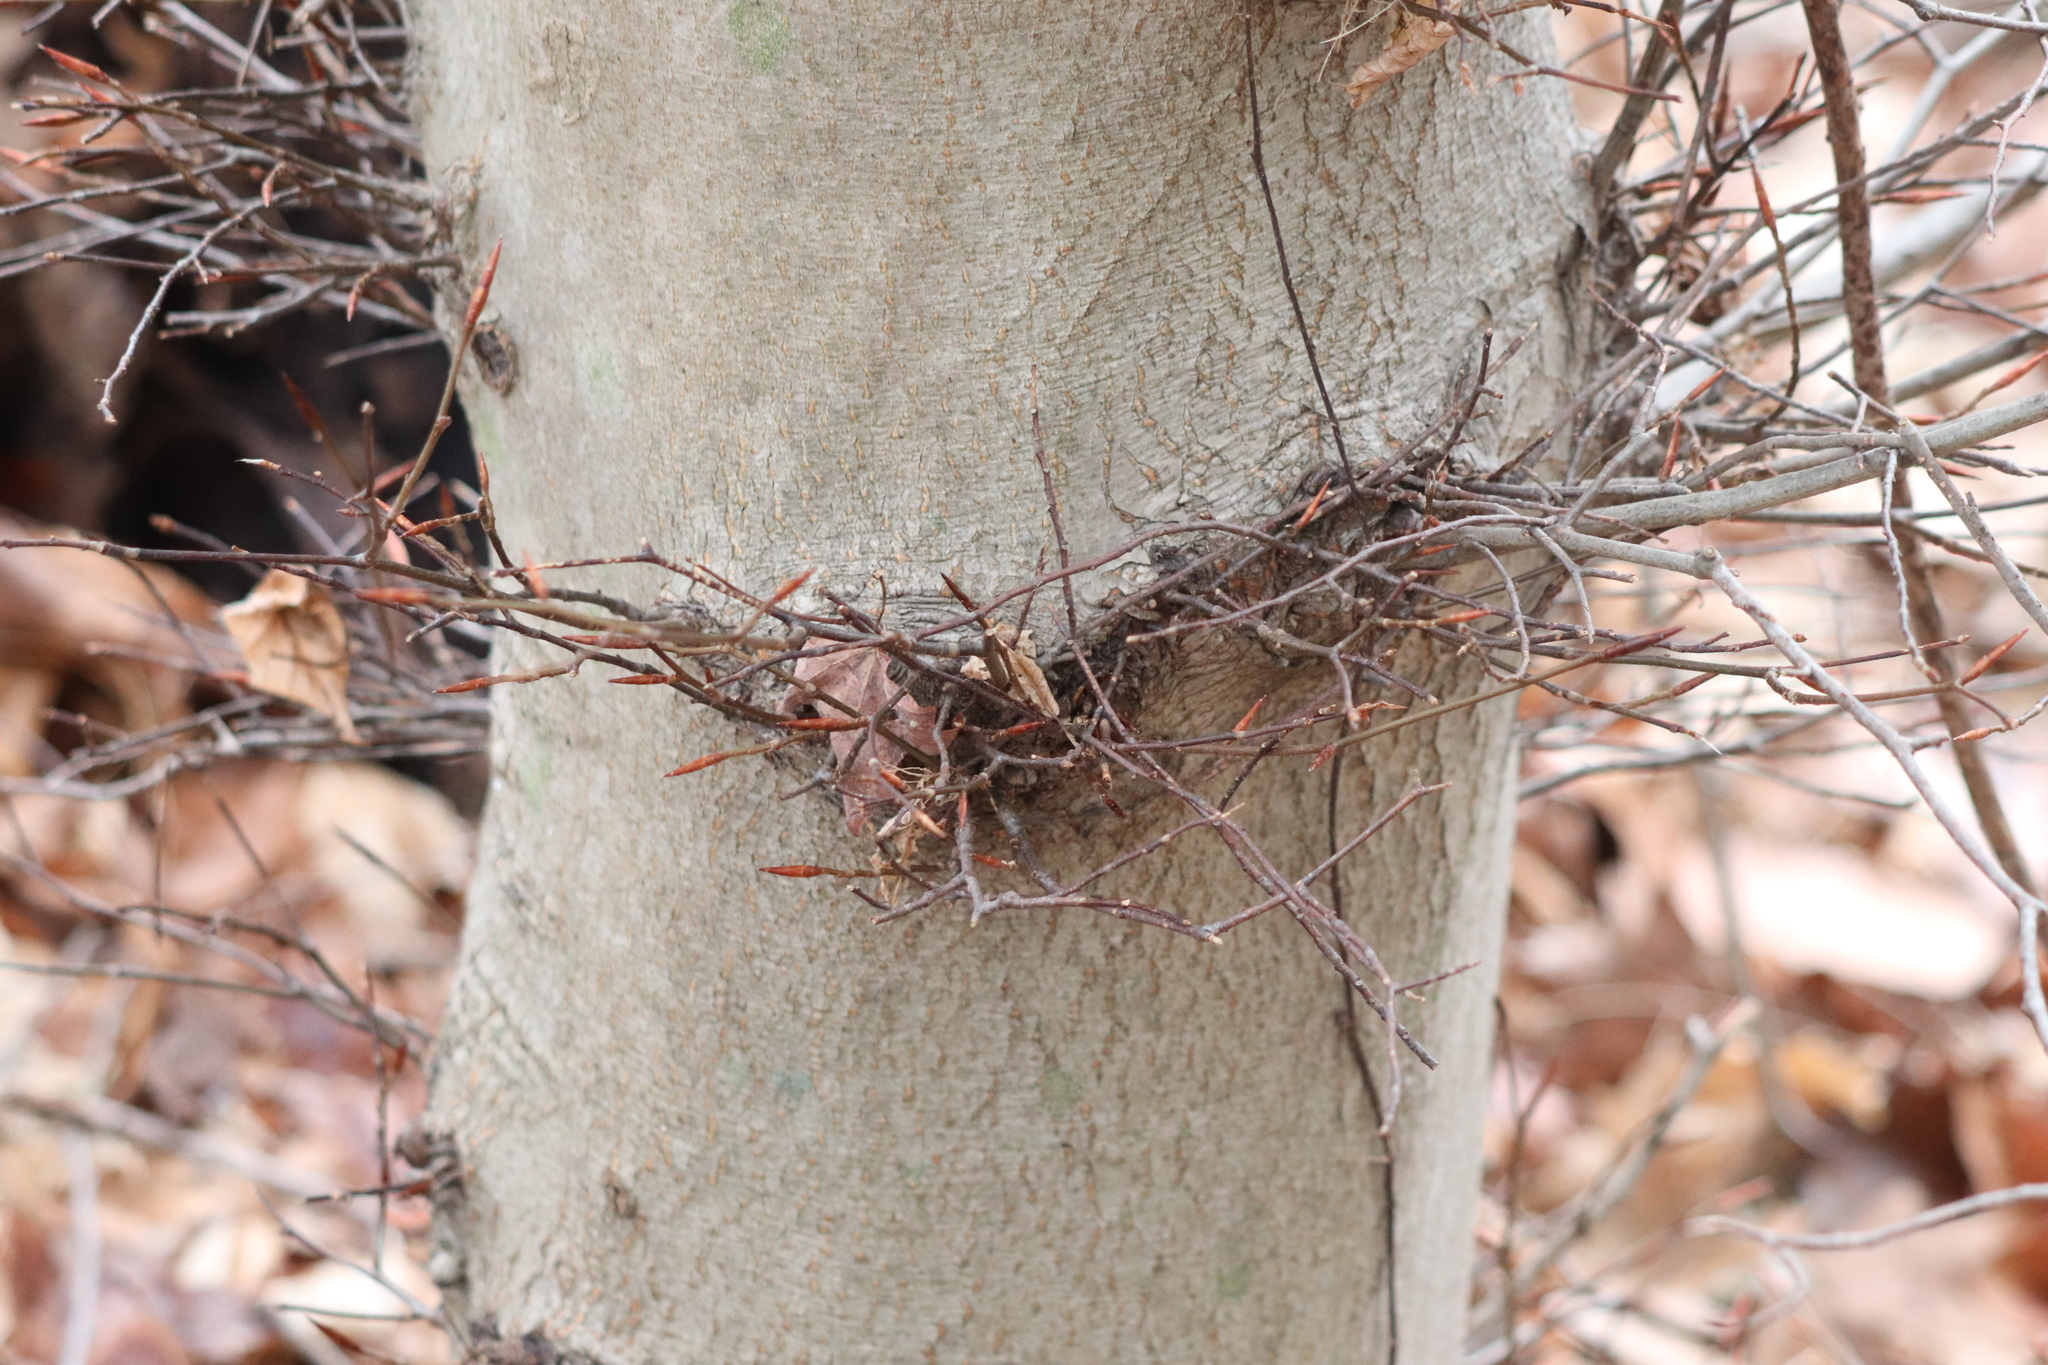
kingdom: Plantae
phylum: Tracheophyta
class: Magnoliopsida
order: Fagales
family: Fagaceae
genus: Fagus
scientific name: Fagus grandifolia
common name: American beech
